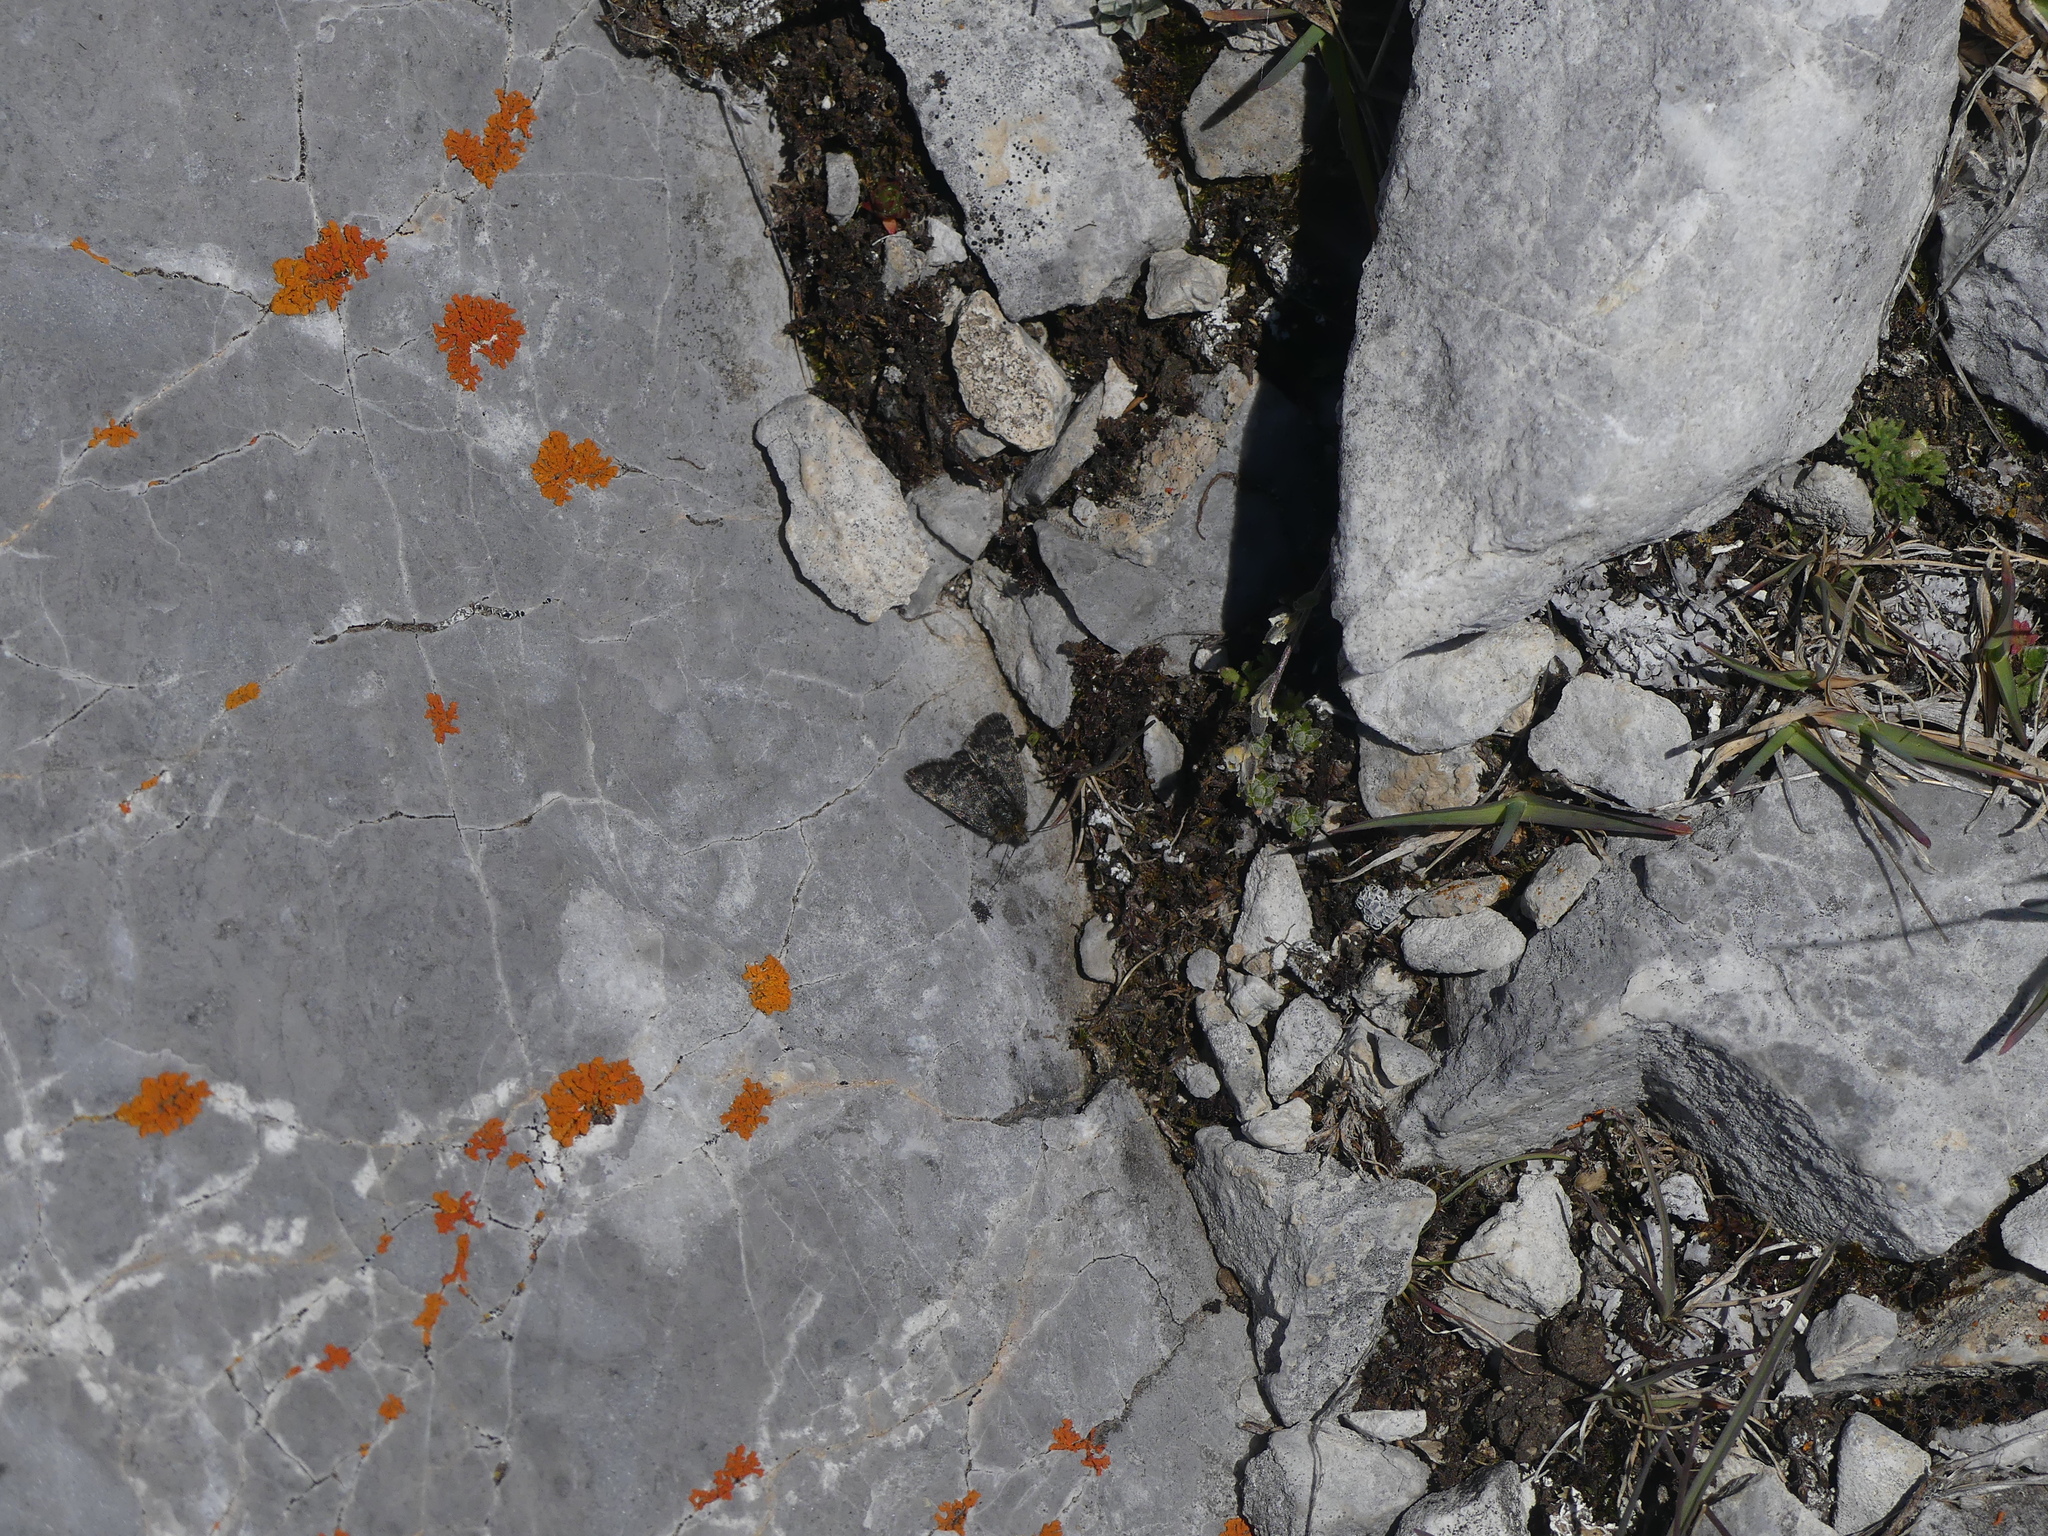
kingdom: Animalia
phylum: Arthropoda
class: Insecta
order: Lepidoptera
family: Noctuidae
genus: Sympistis
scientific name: Sympistis nigrita
